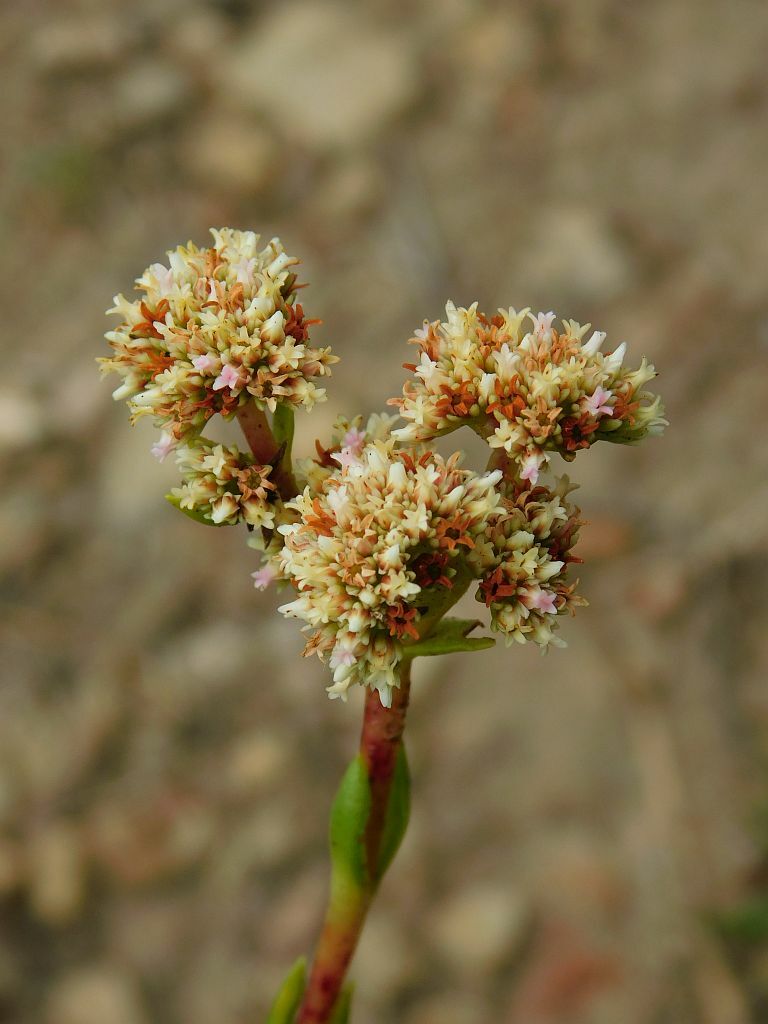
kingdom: Plantae
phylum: Tracheophyta
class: Magnoliopsida
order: Saxifragales
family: Crassulaceae
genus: Crassula
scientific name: Crassula subulata
